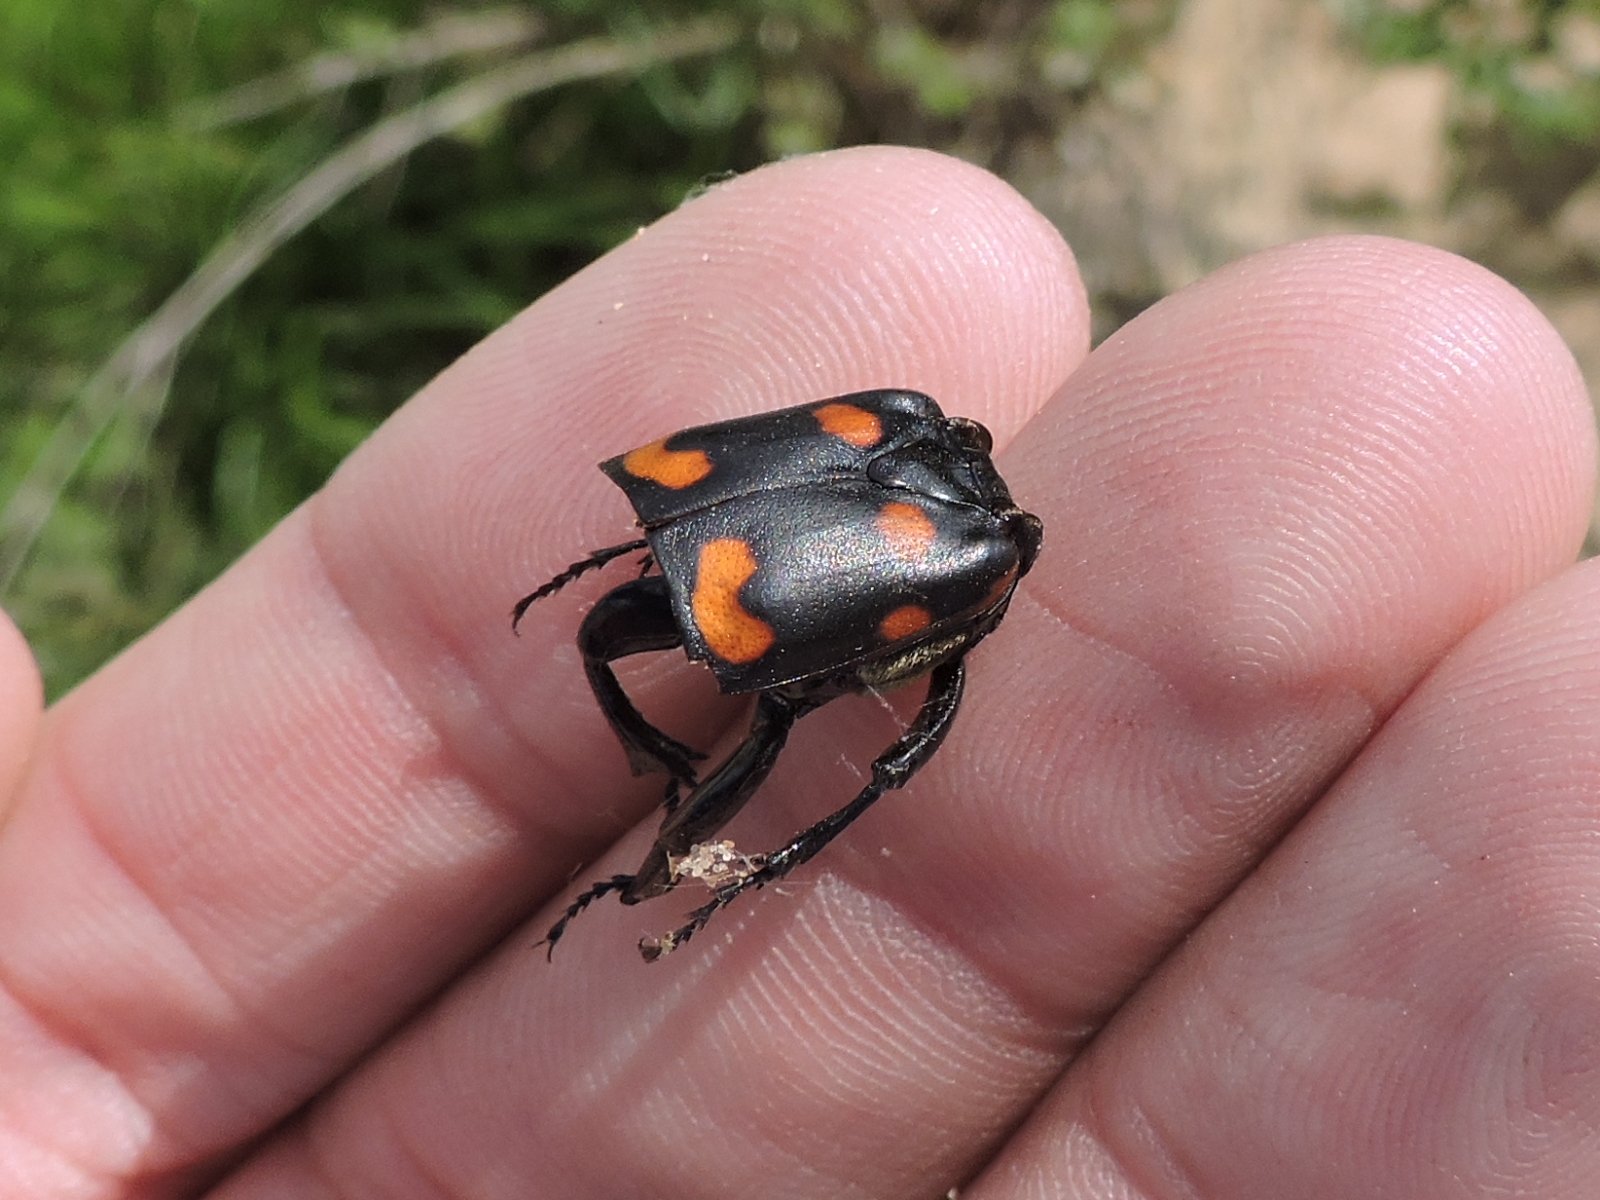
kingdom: Animalia
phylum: Arthropoda
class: Insecta
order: Coleoptera
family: Staphylinidae
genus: Nicrophorus
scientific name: Nicrophorus carolinus
